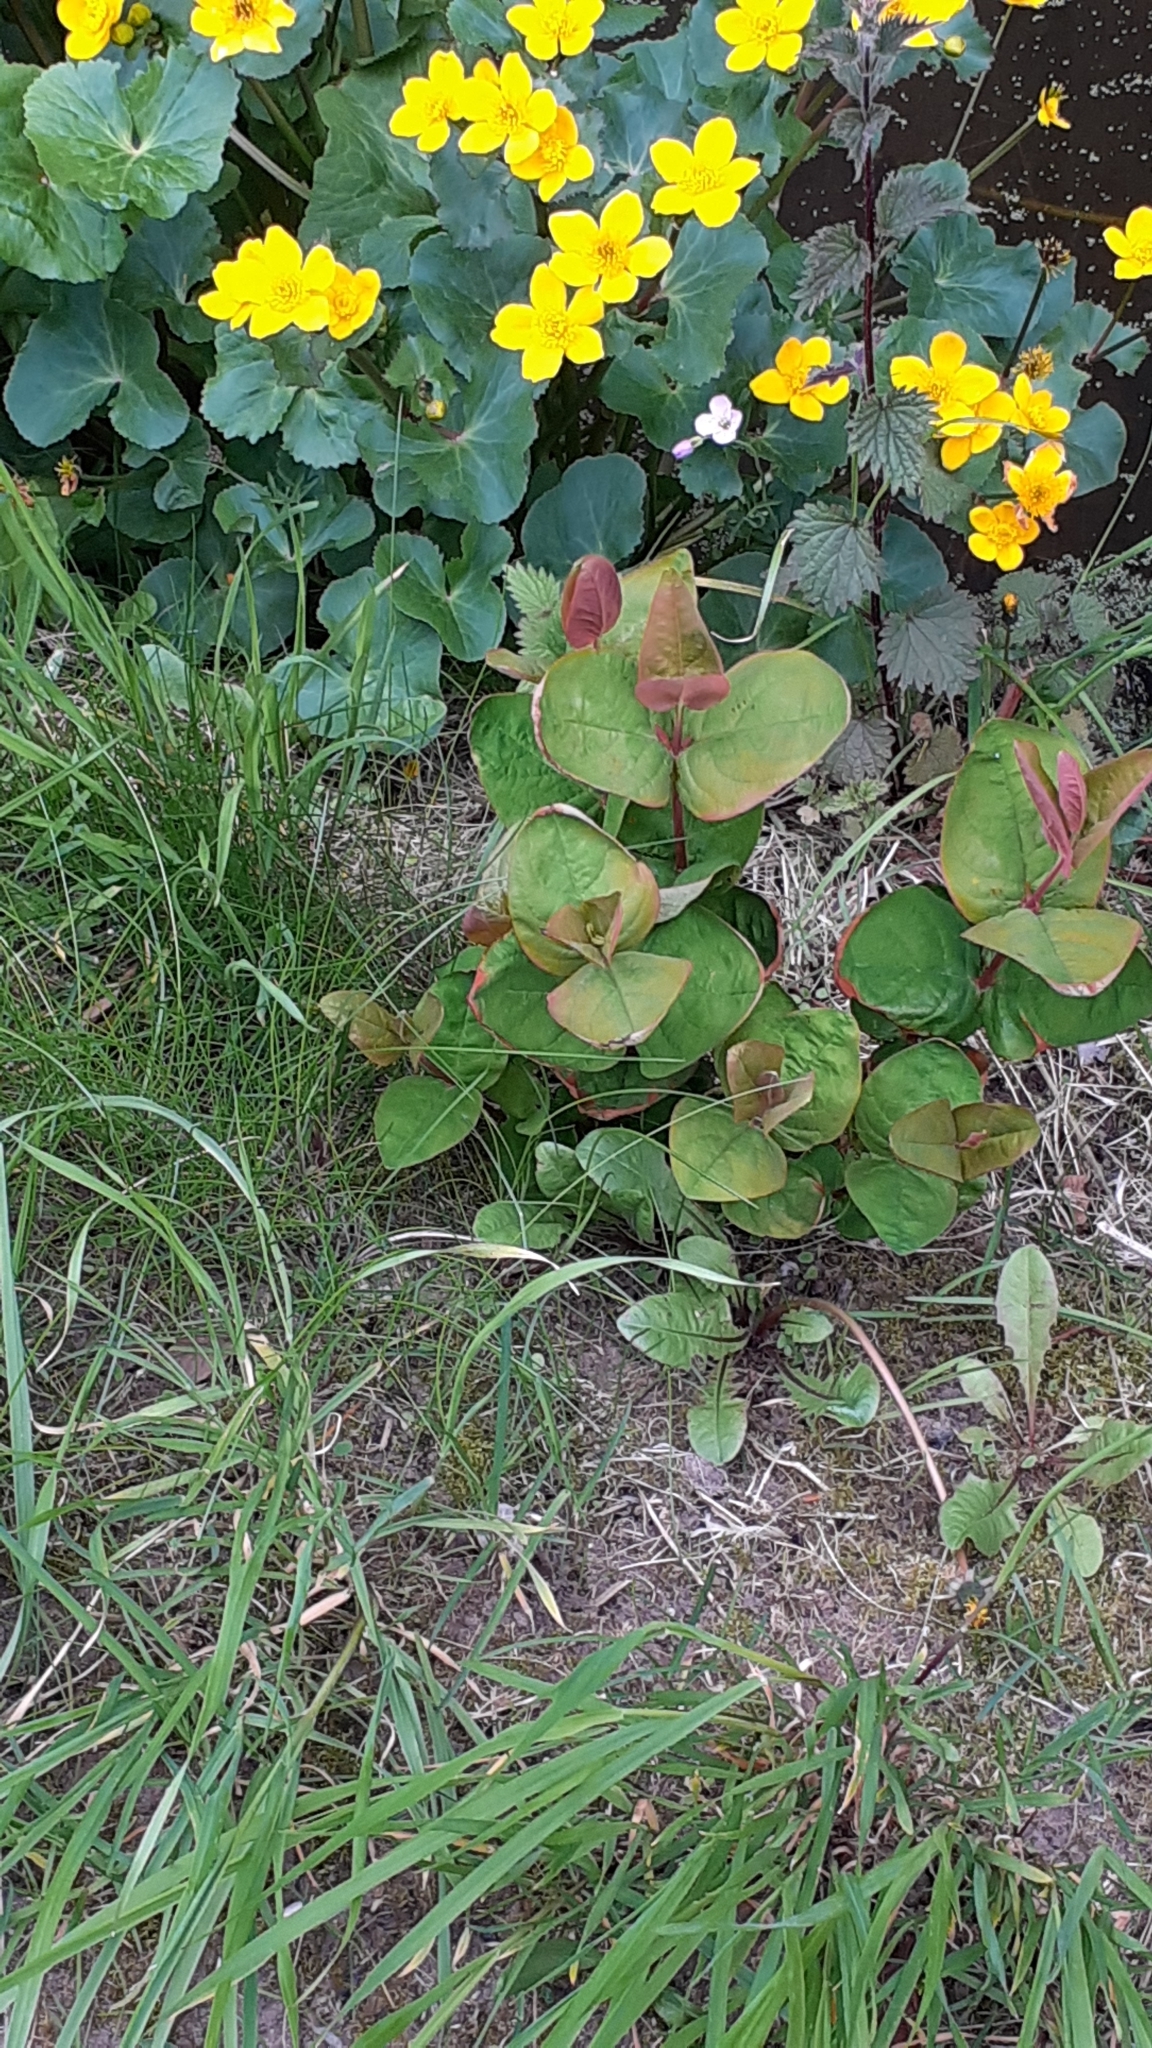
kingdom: Plantae
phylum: Tracheophyta
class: Magnoliopsida
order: Malpighiales
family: Hypericaceae
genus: Hypericum
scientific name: Hypericum androsaemum
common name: Sweet-amber
